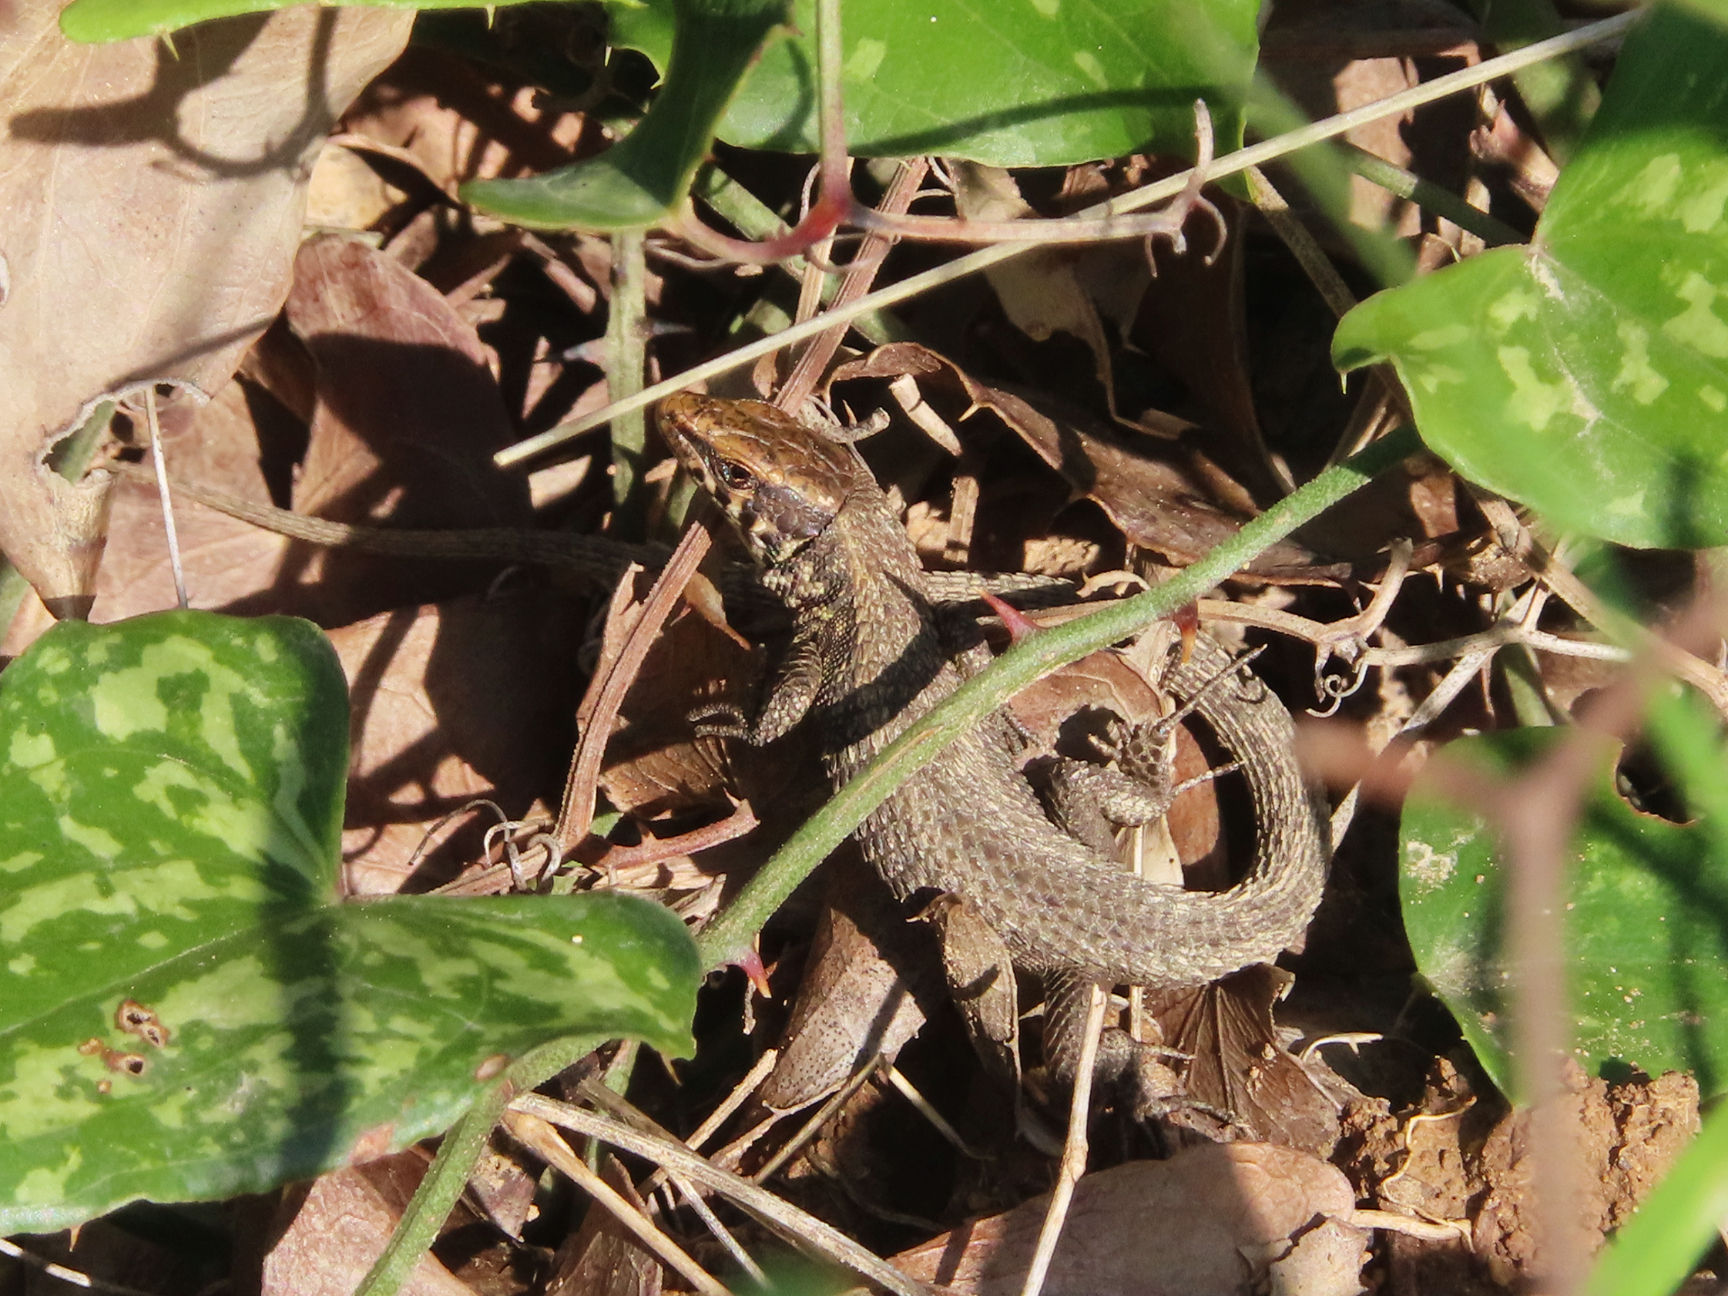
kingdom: Animalia
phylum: Chordata
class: Squamata
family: Lacertidae
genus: Algyroides
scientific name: Algyroides moreoticus
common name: Greek algyroides
